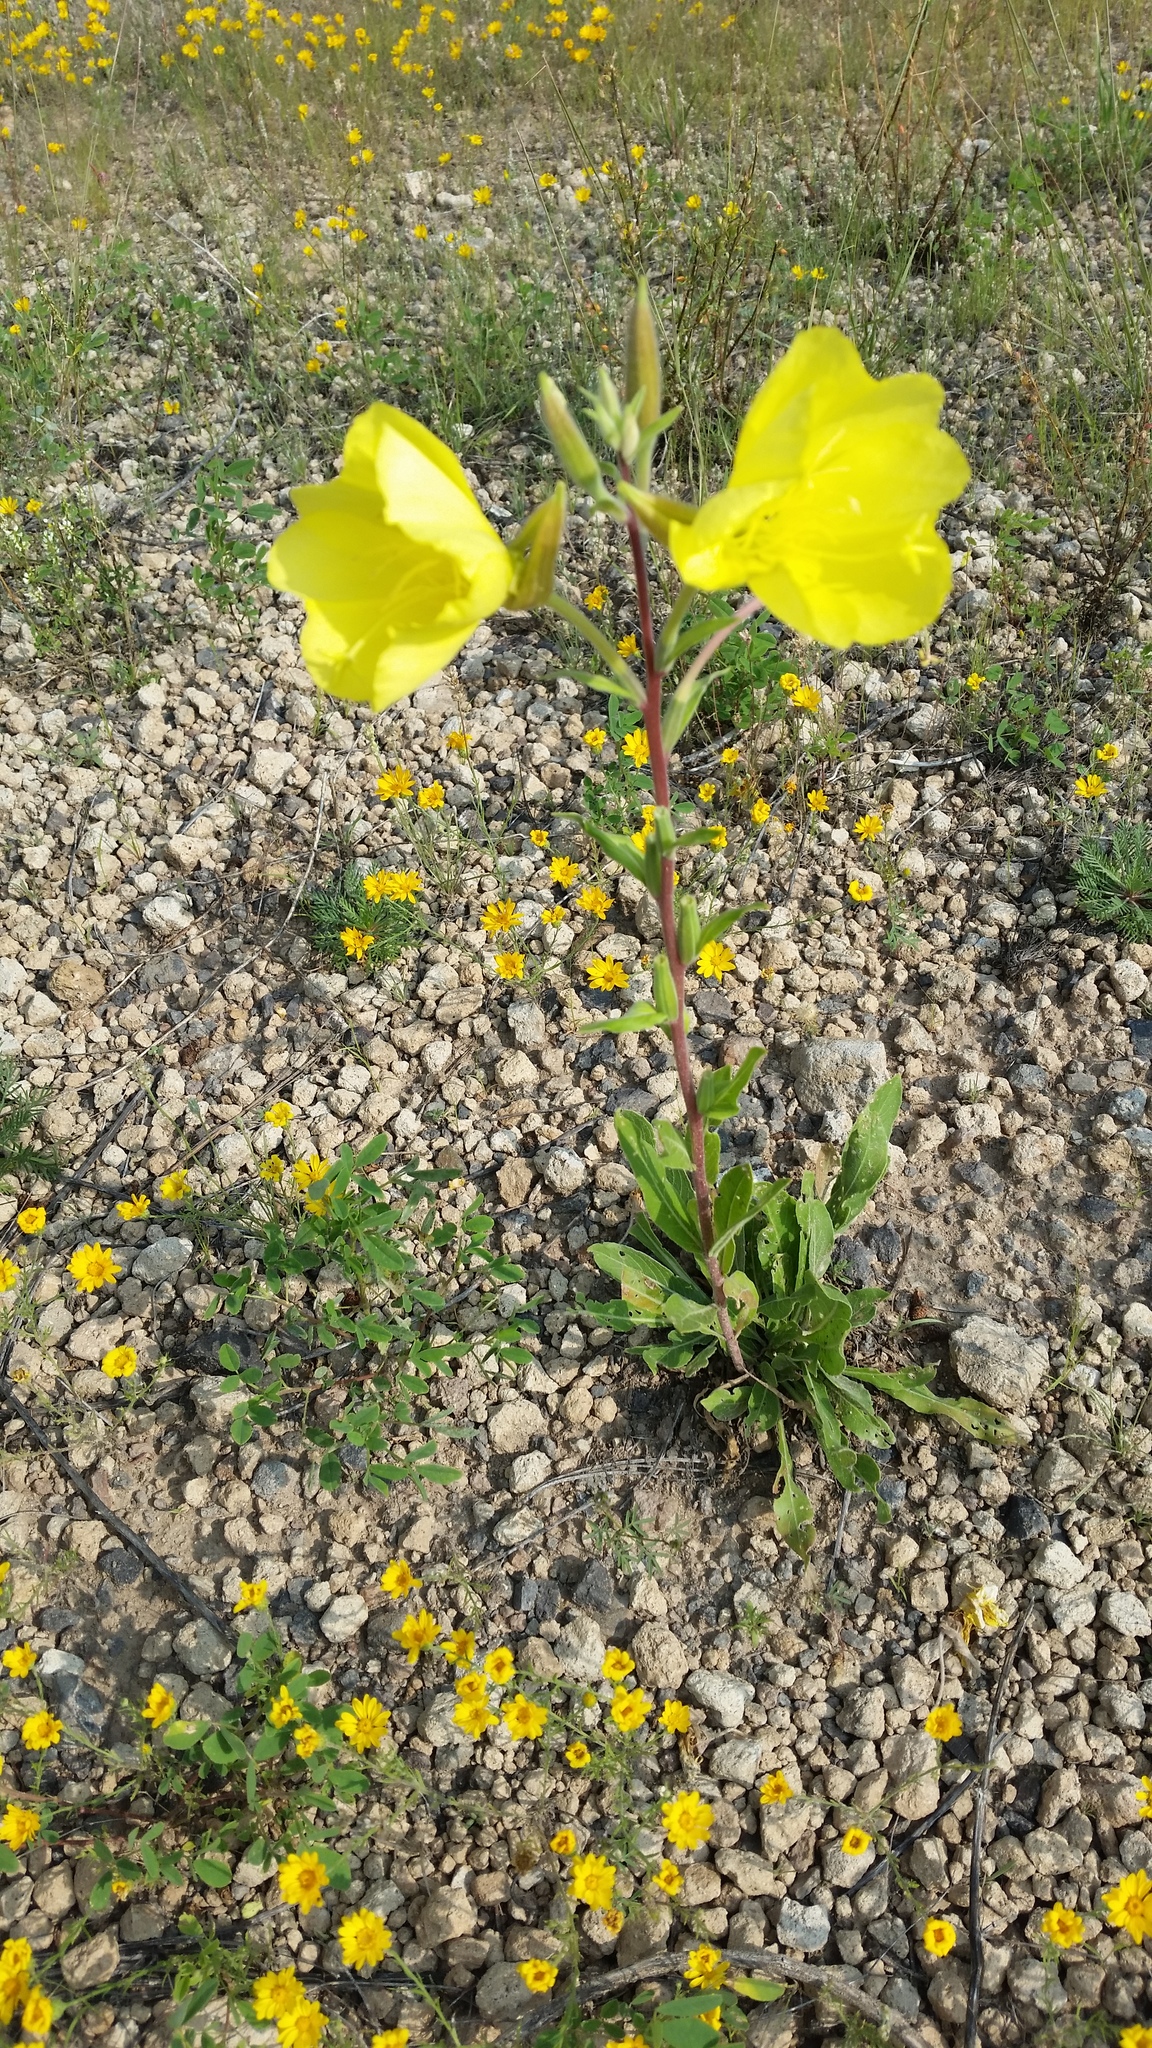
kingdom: Plantae
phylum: Tracheophyta
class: Magnoliopsida
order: Myrtales
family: Onagraceae
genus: Oenothera
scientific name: Oenothera elata
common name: Hooker's evening-primrose
